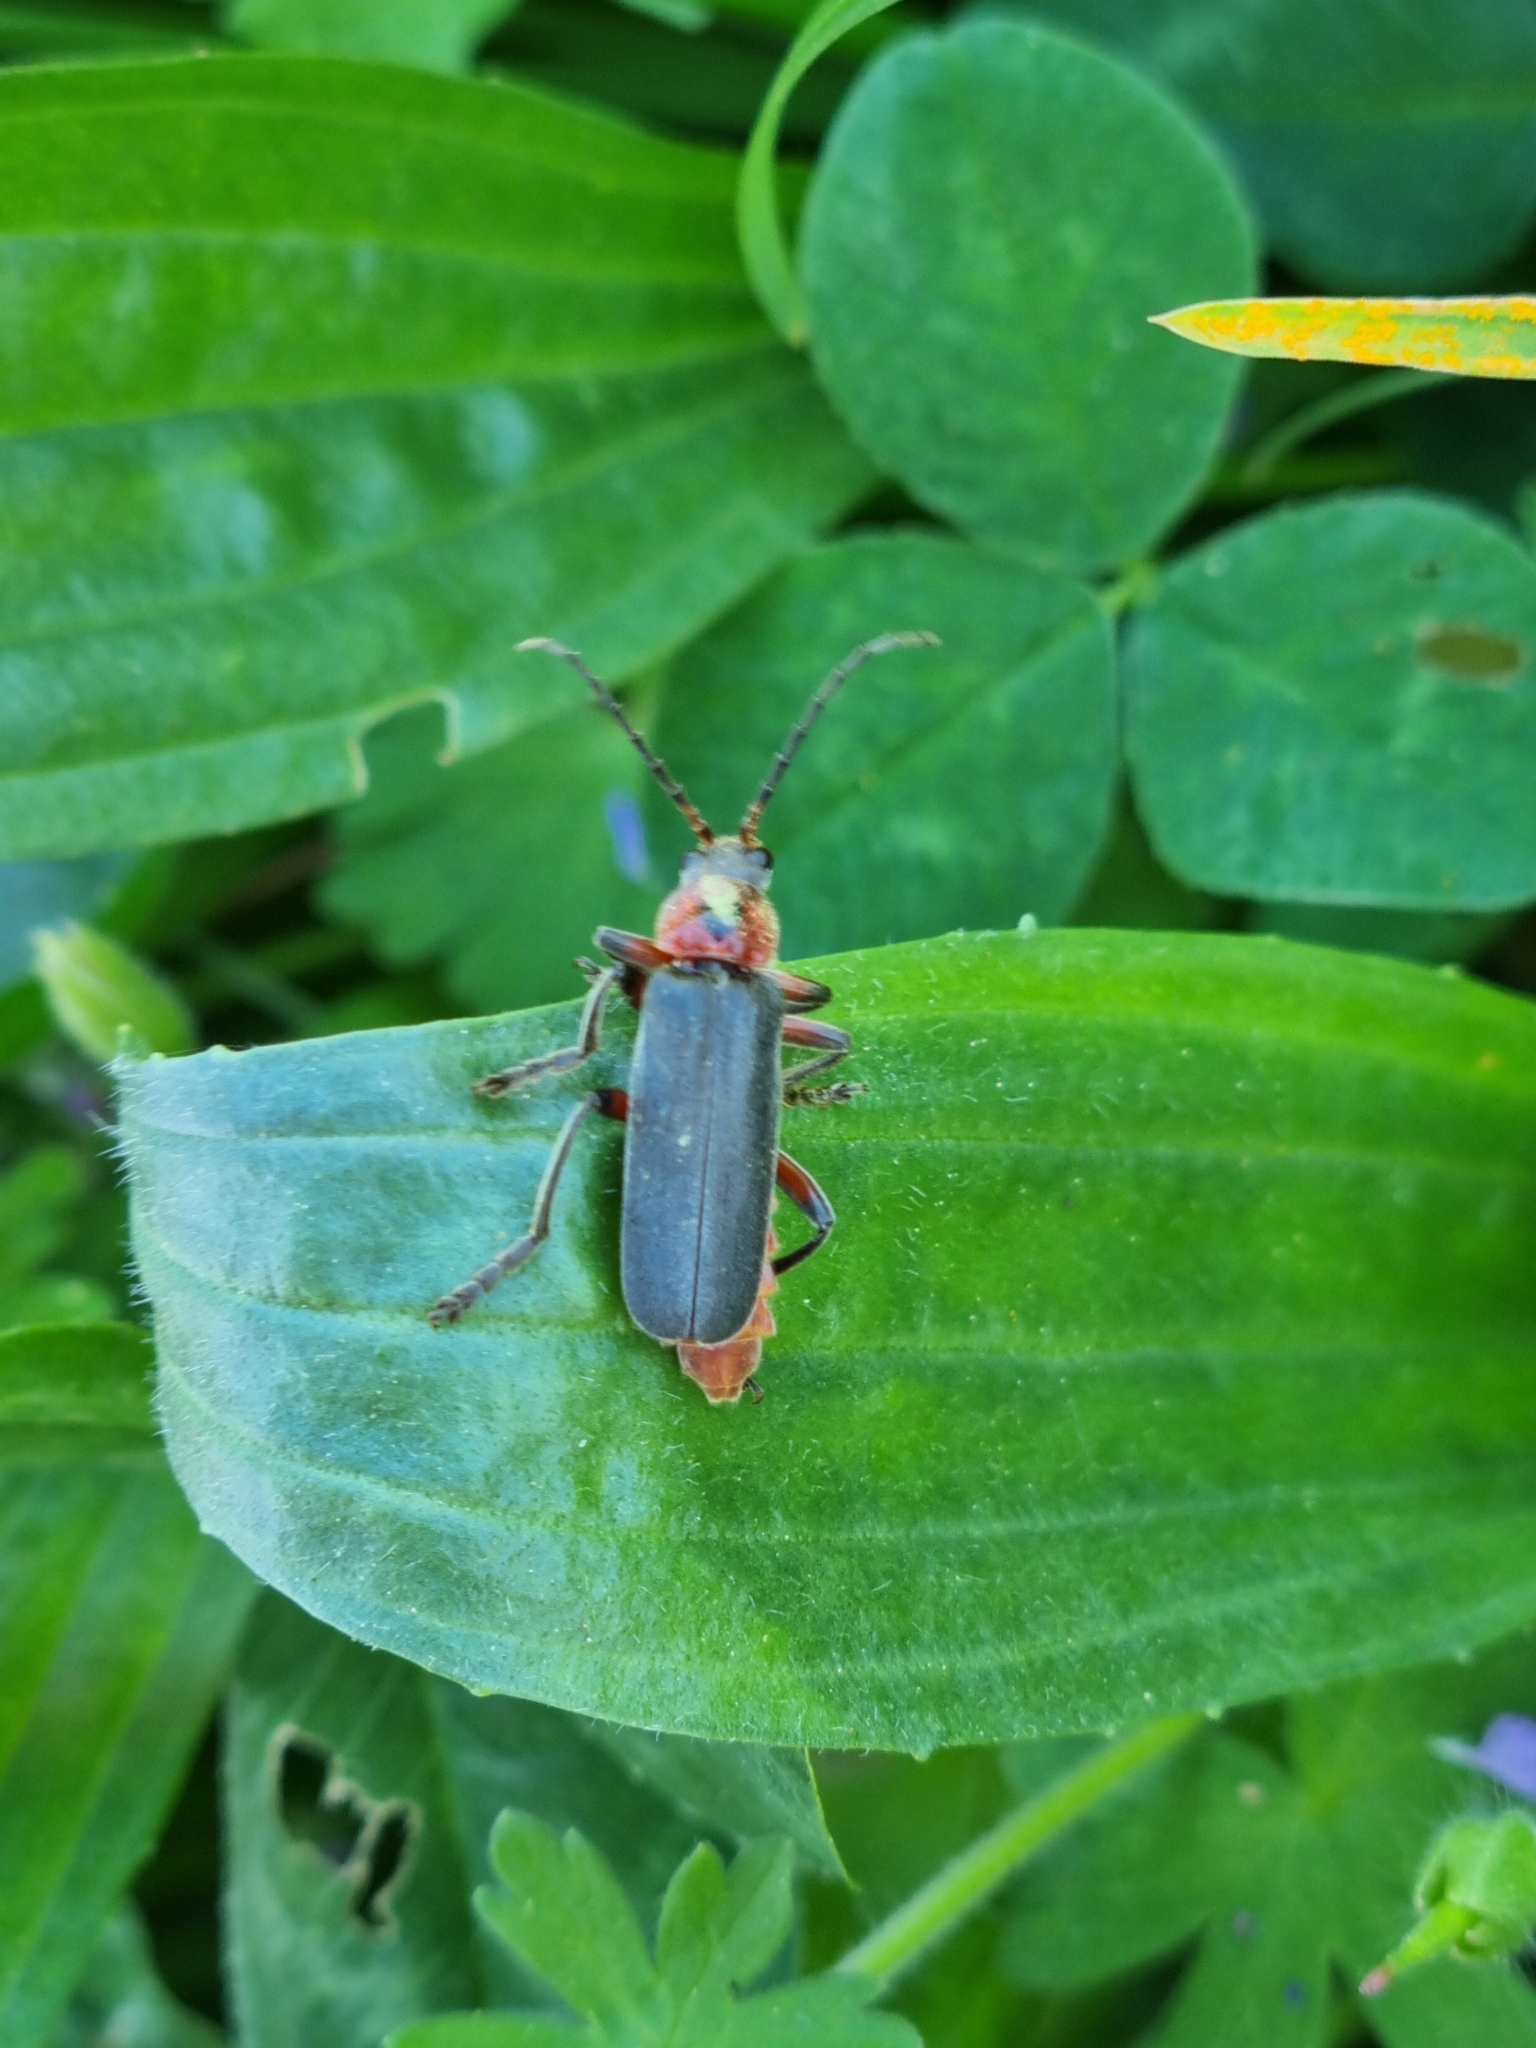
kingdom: Animalia
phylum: Arthropoda
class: Insecta
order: Coleoptera
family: Cantharidae
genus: Cantharis
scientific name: Cantharis rustica
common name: Soldier beetle
